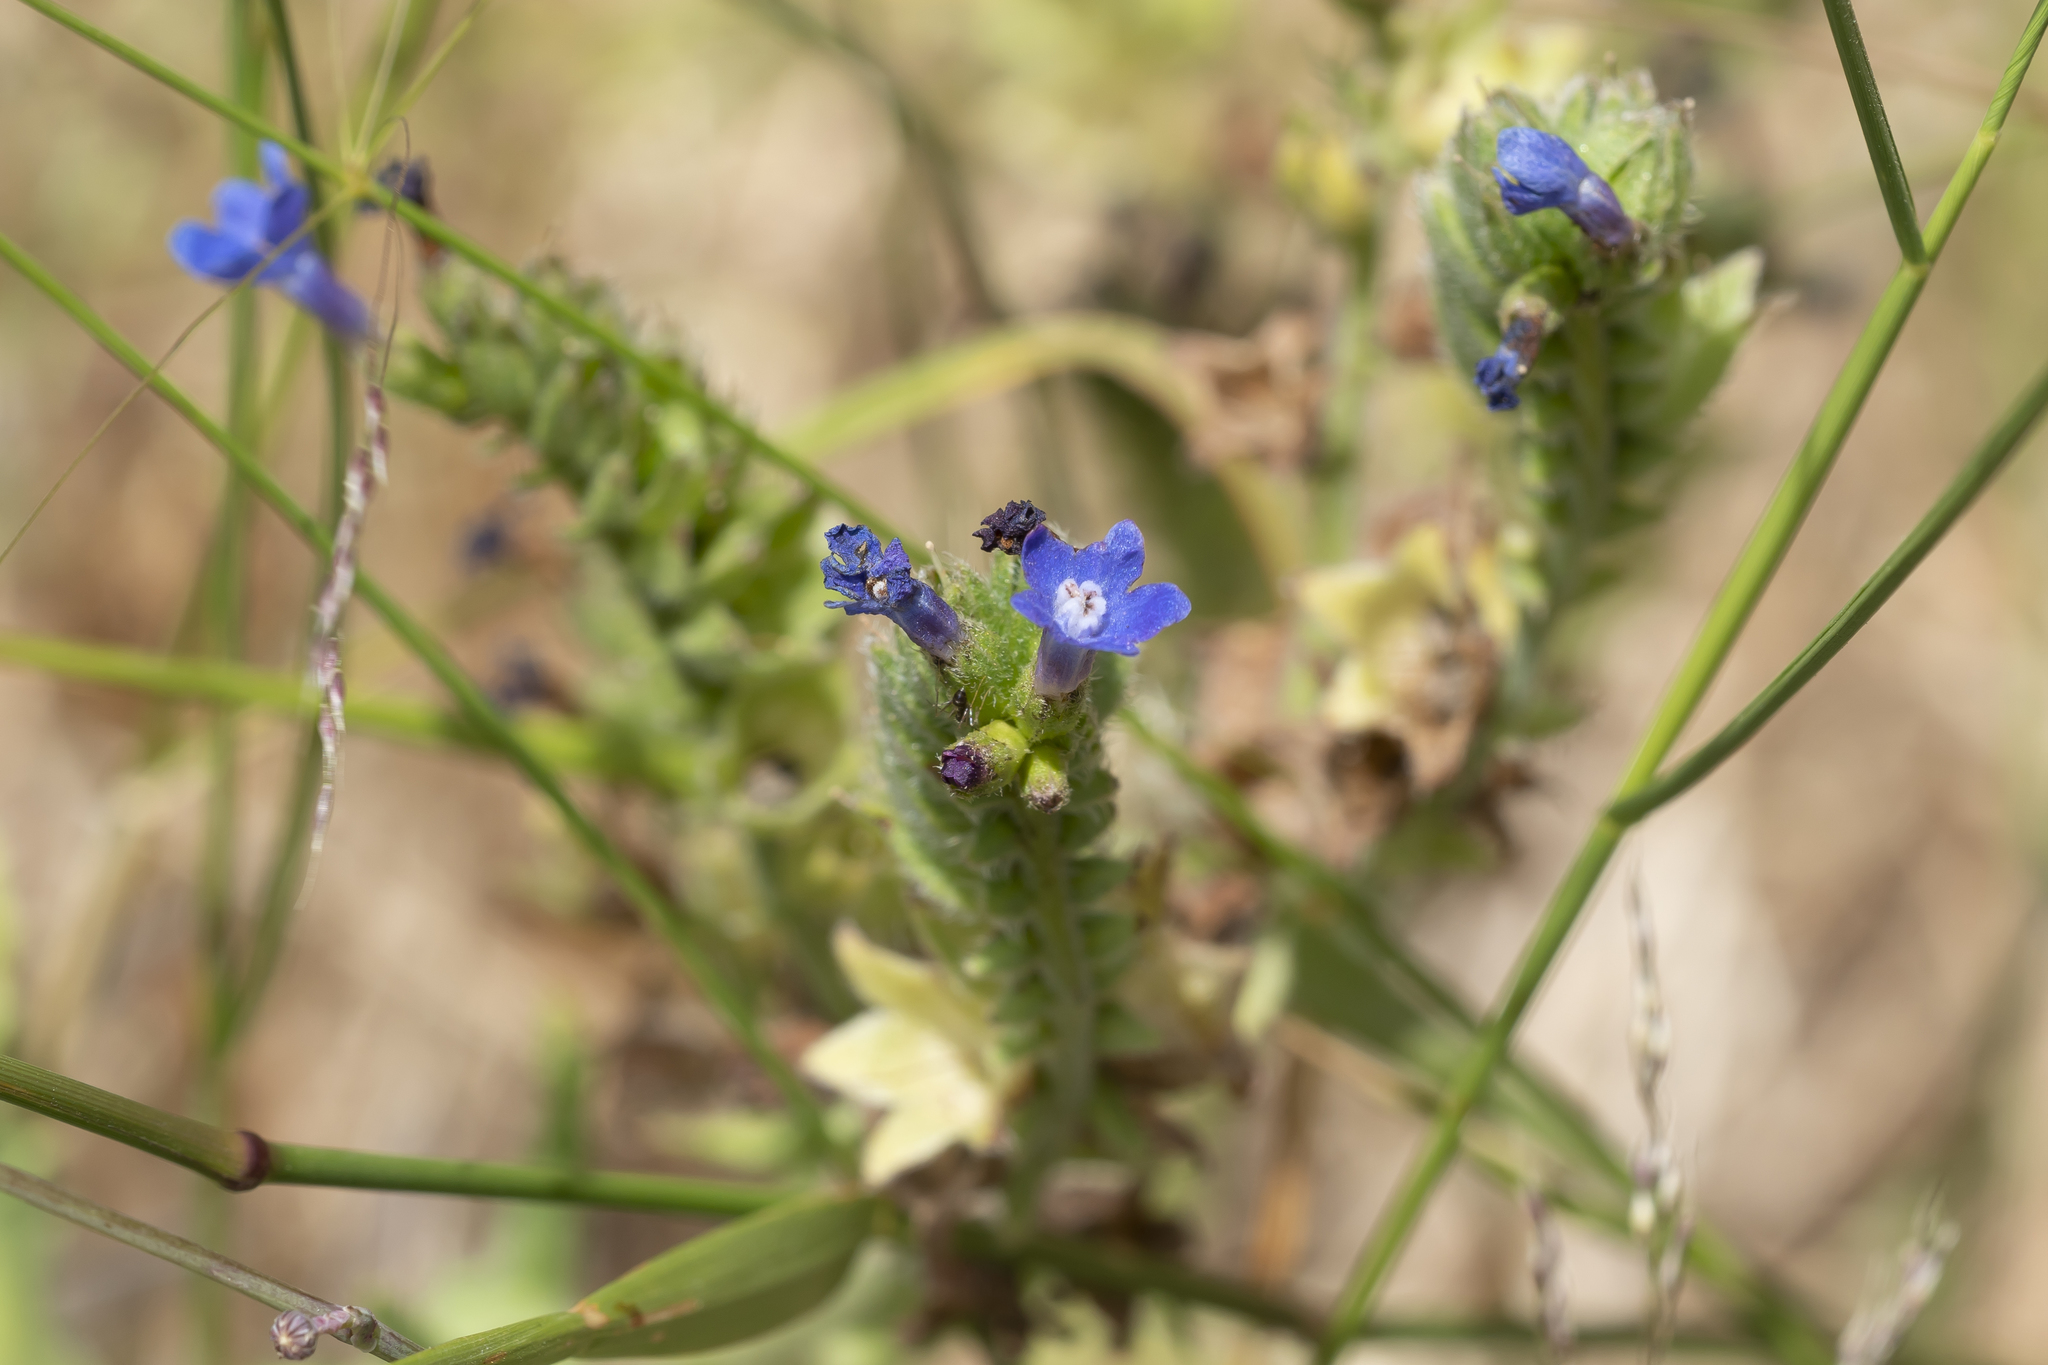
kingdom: Plantae
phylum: Tracheophyta
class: Magnoliopsida
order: Boraginales
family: Boraginaceae
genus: Anchusa
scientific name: Anchusa hybrida
